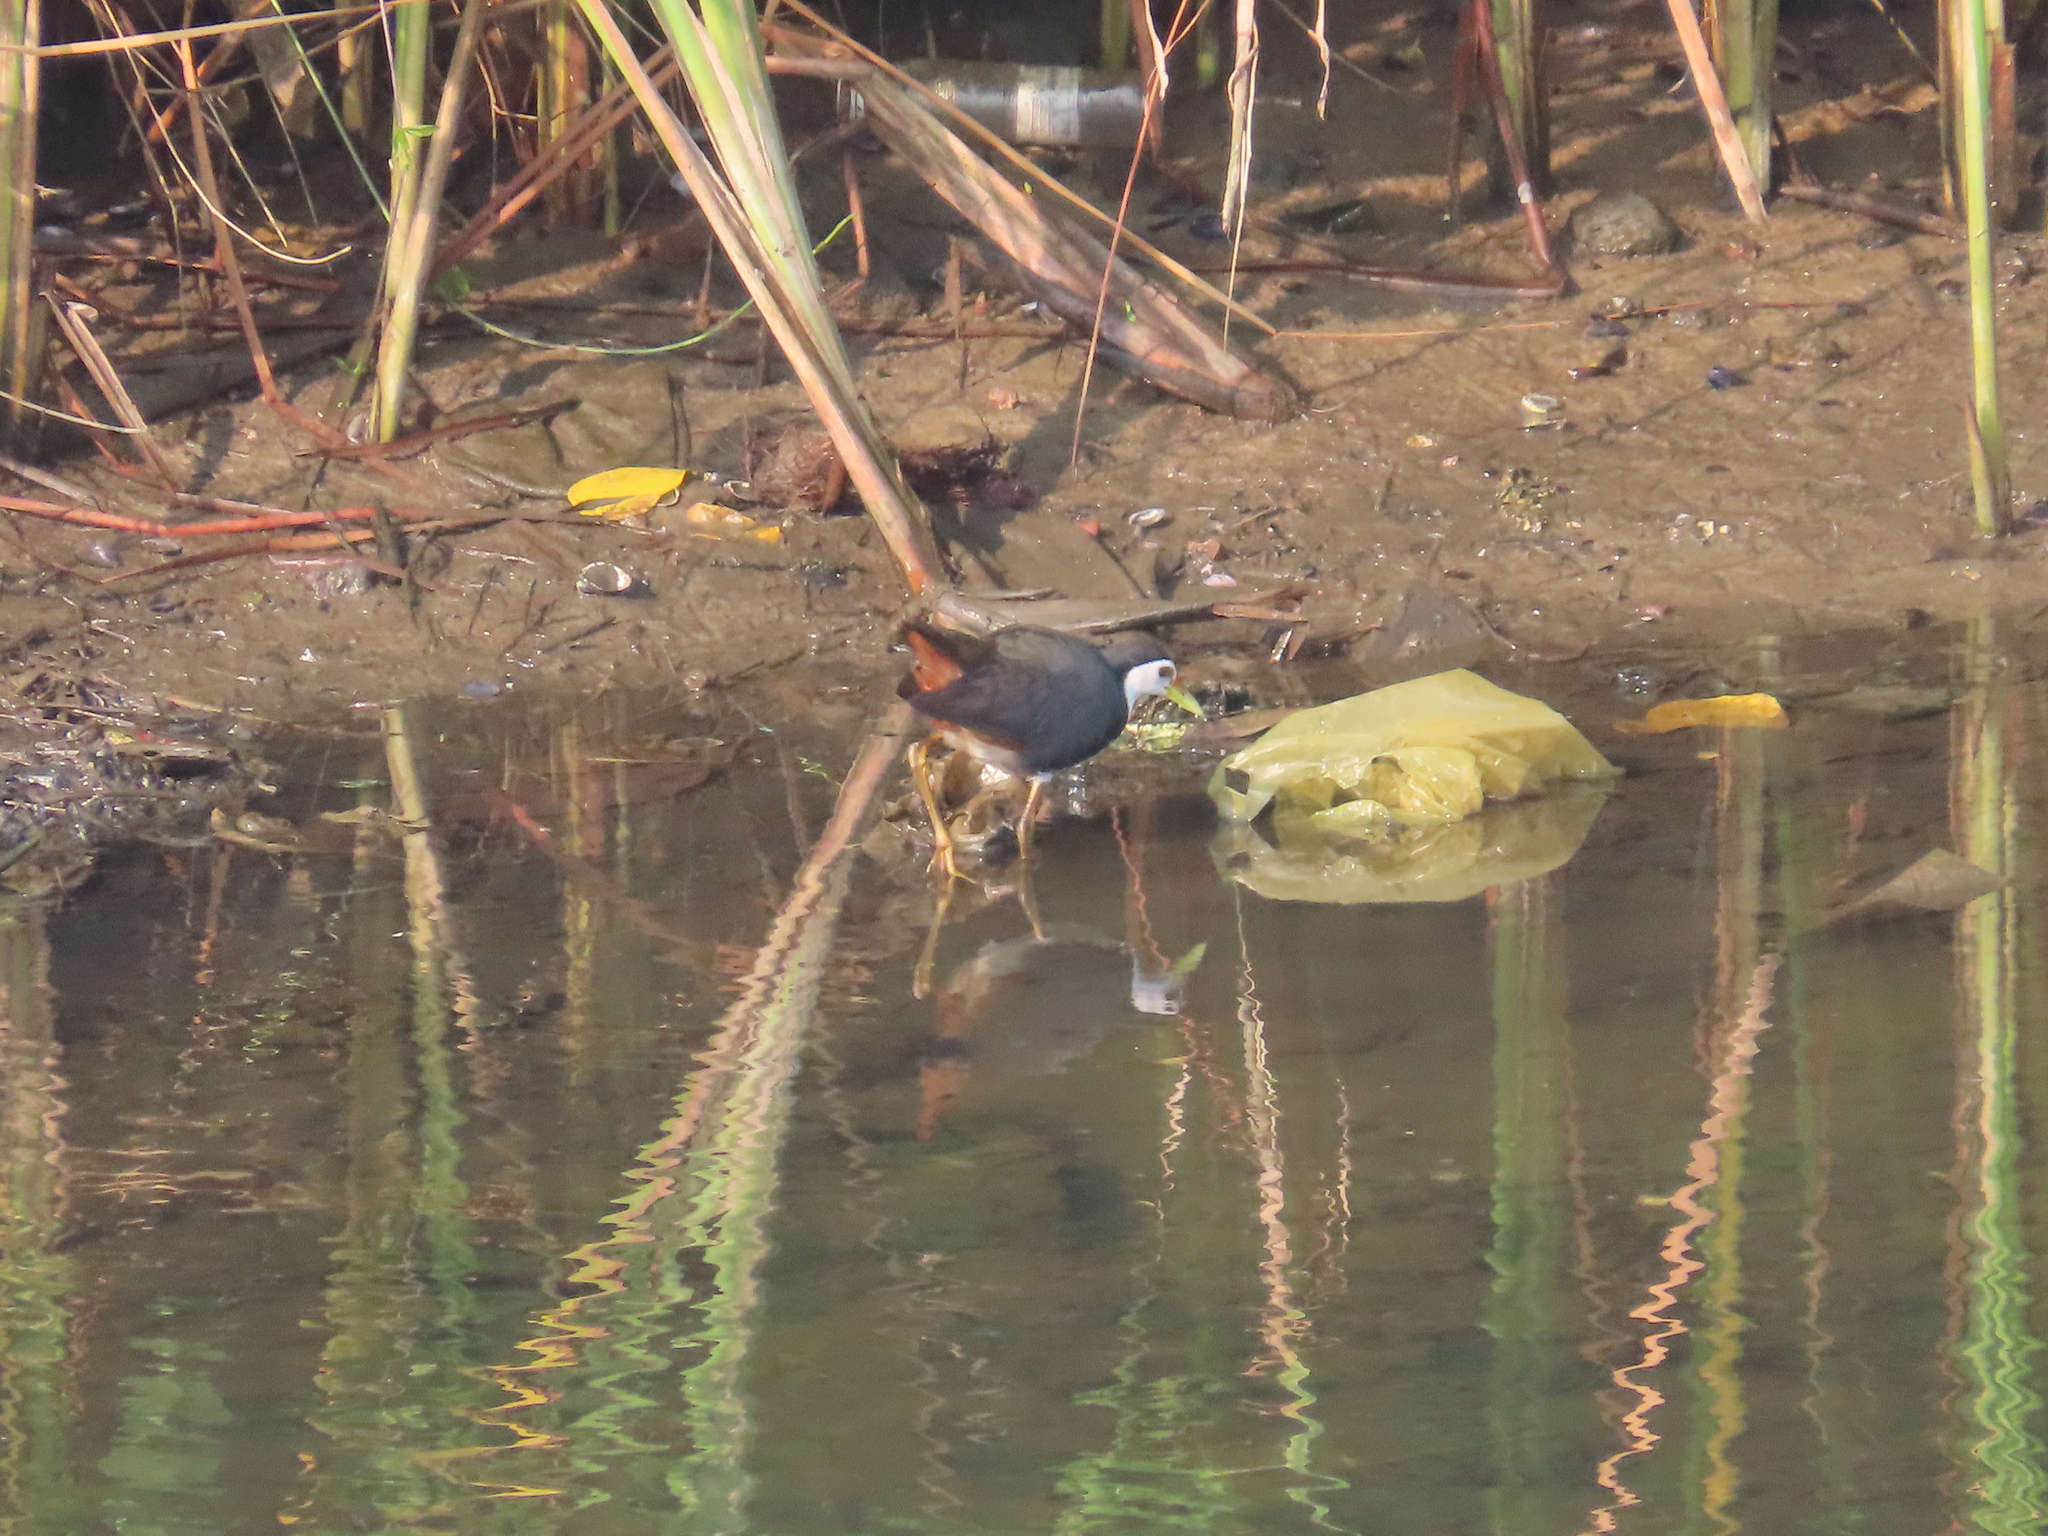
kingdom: Animalia
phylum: Chordata
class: Aves
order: Gruiformes
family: Rallidae
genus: Amaurornis
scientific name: Amaurornis phoenicurus
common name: White-breasted waterhen
